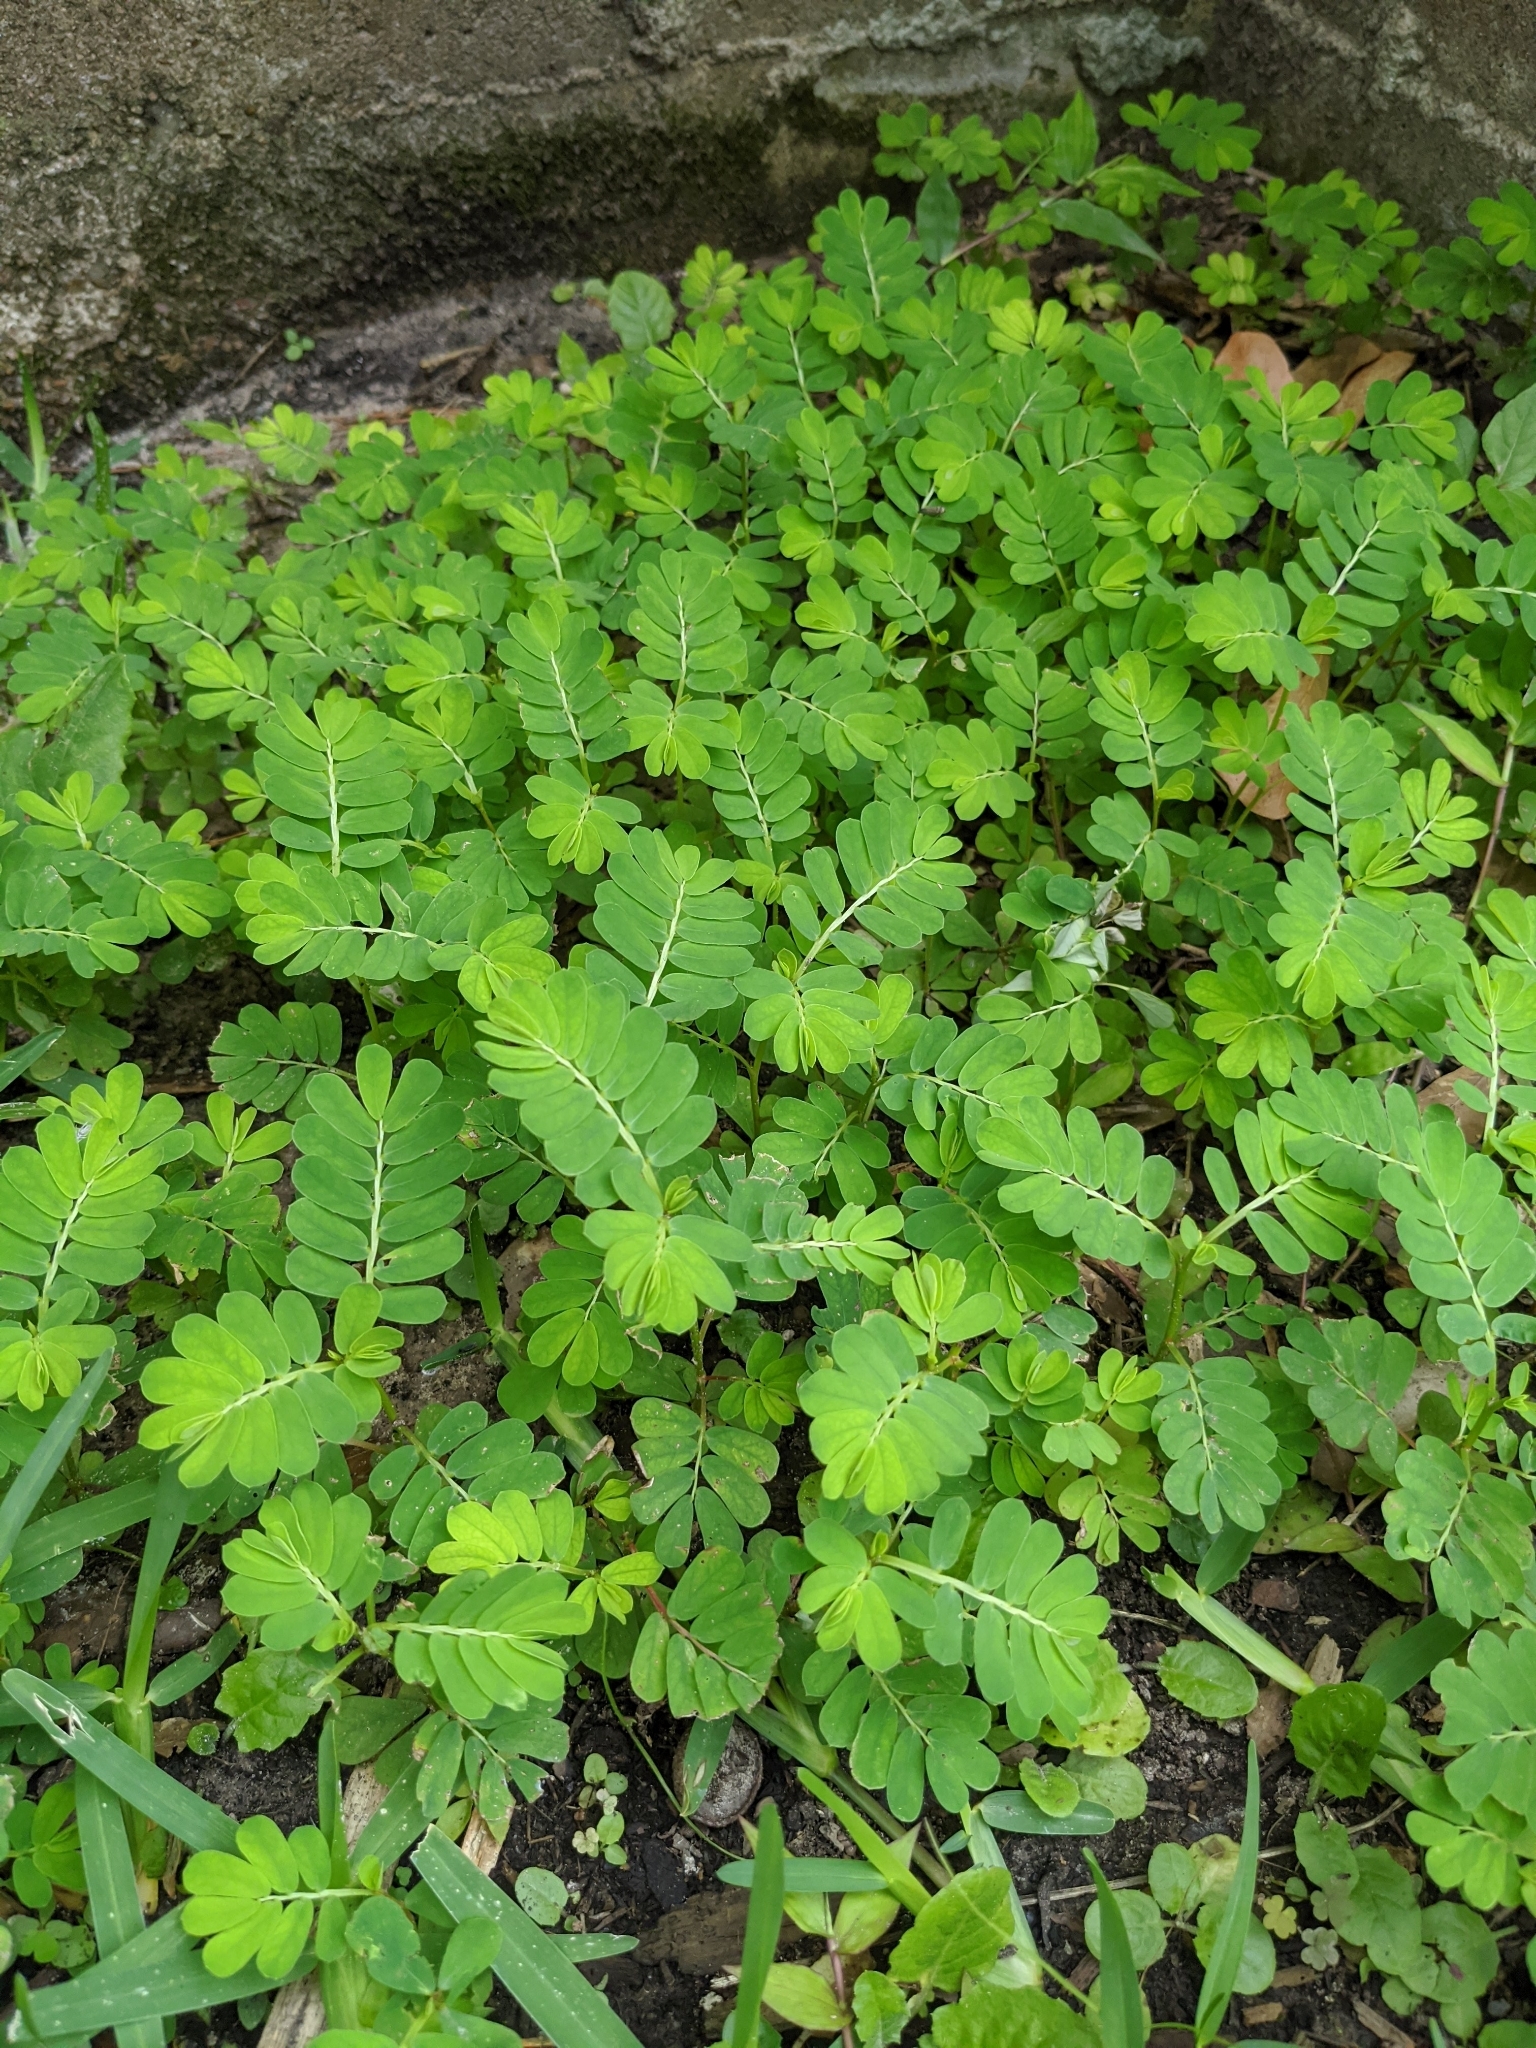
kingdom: Plantae
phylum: Tracheophyta
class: Magnoliopsida
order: Malpighiales
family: Phyllanthaceae
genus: Phyllanthus
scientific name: Phyllanthus urinaria
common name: Chamber bitter
